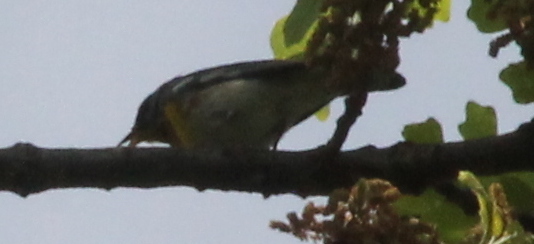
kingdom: Animalia
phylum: Chordata
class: Aves
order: Passeriformes
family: Parulidae
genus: Setophaga
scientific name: Setophaga americana
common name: Northern parula
